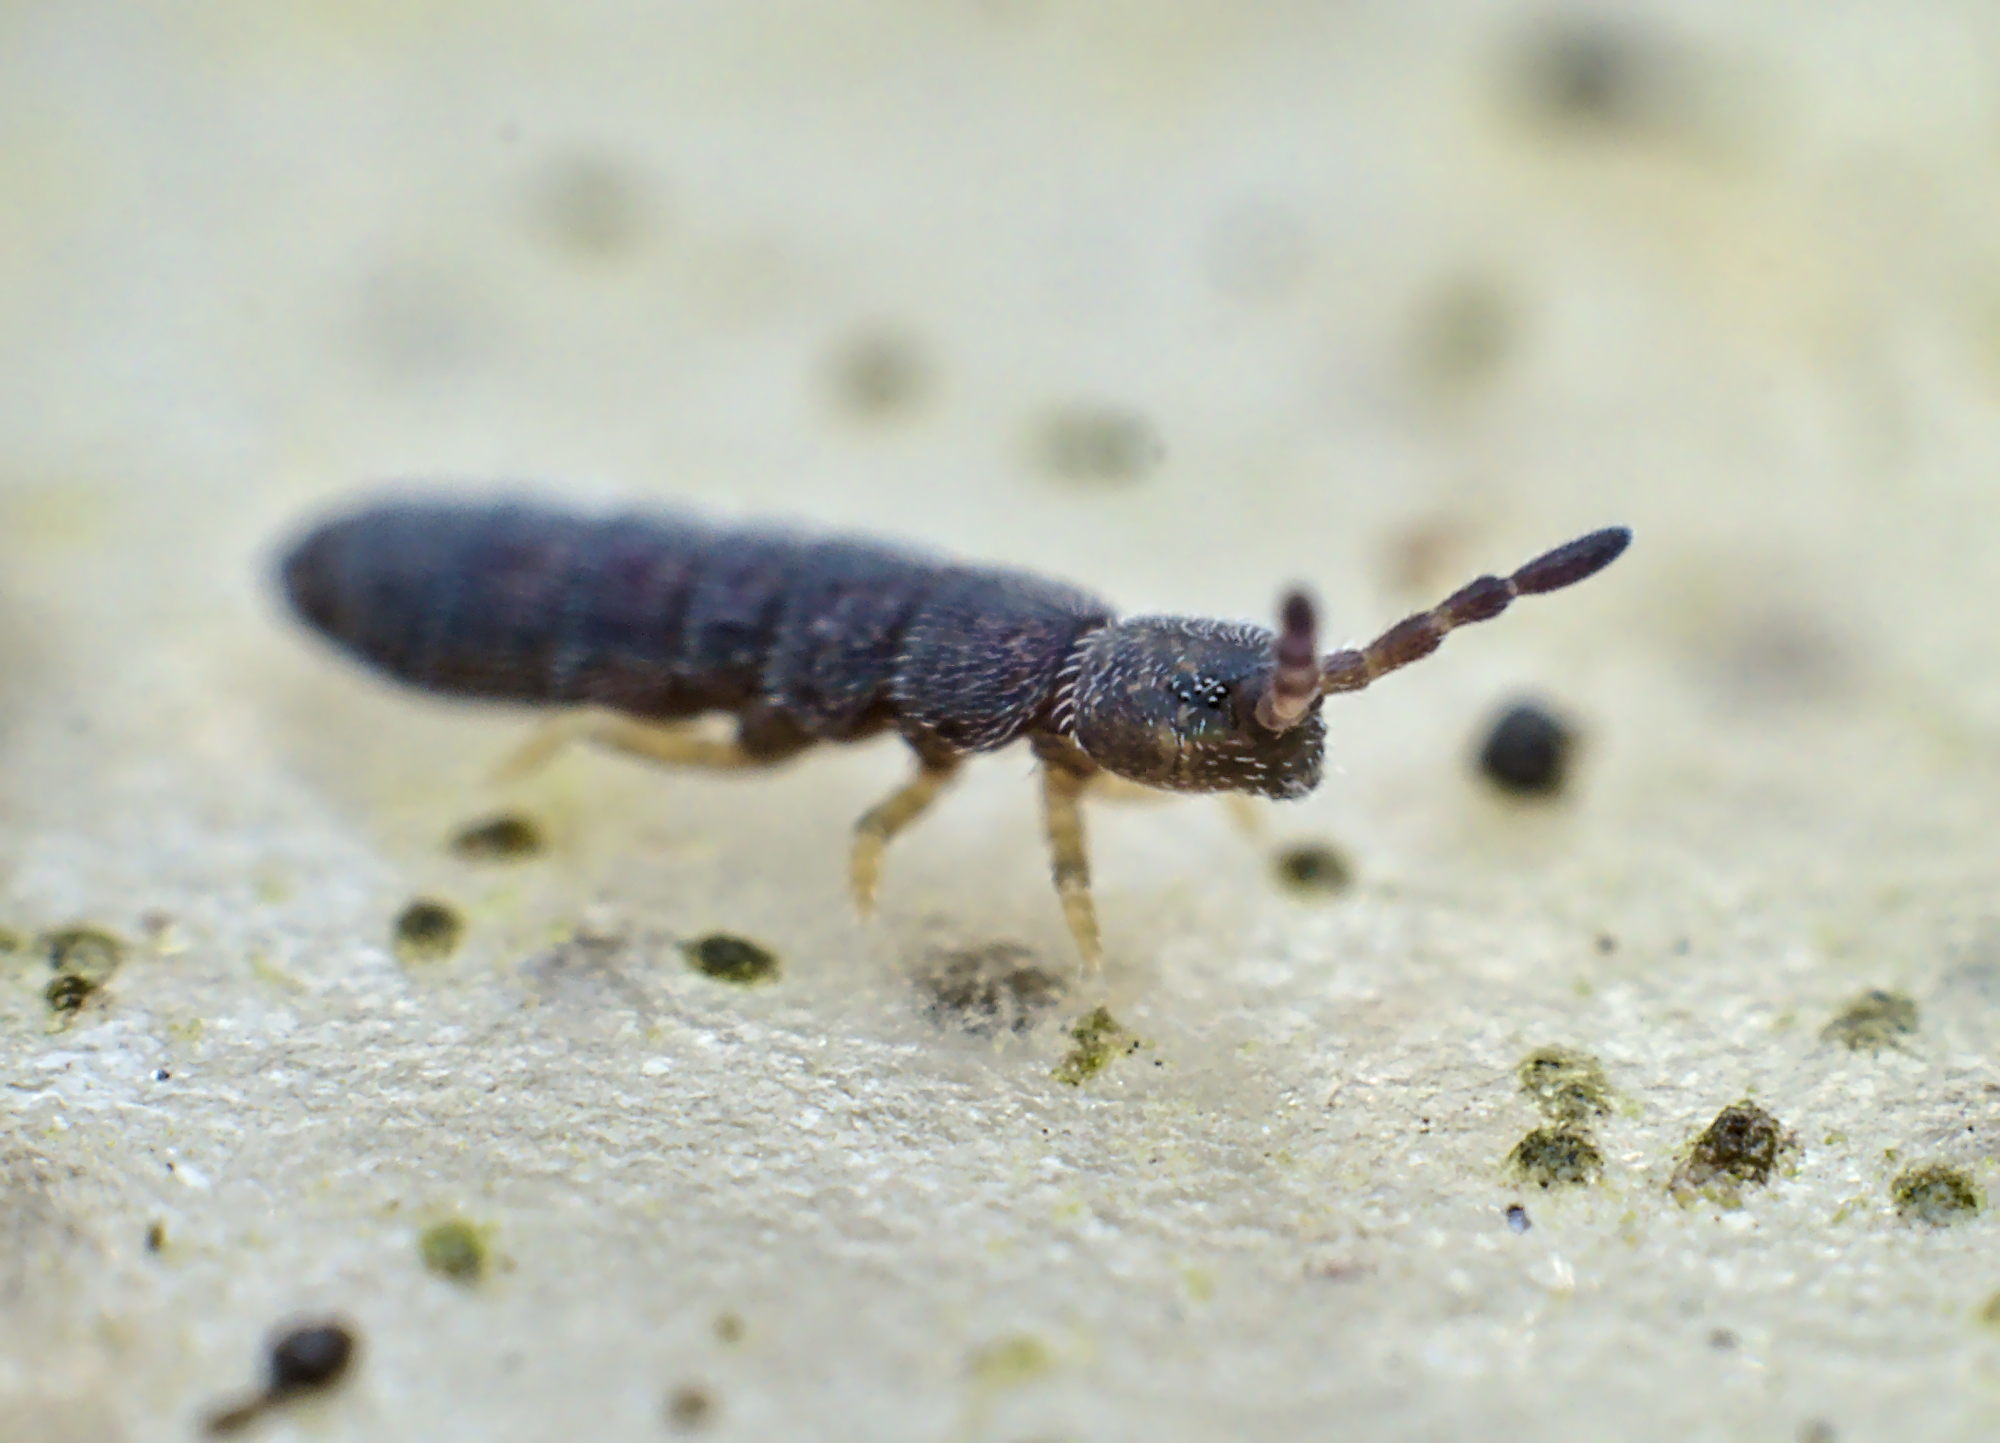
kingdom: Animalia
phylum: Arthropoda
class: Collembola
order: Entomobryomorpha
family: Isotomidae
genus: Vertagopus
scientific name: Vertagopus asiaticus
